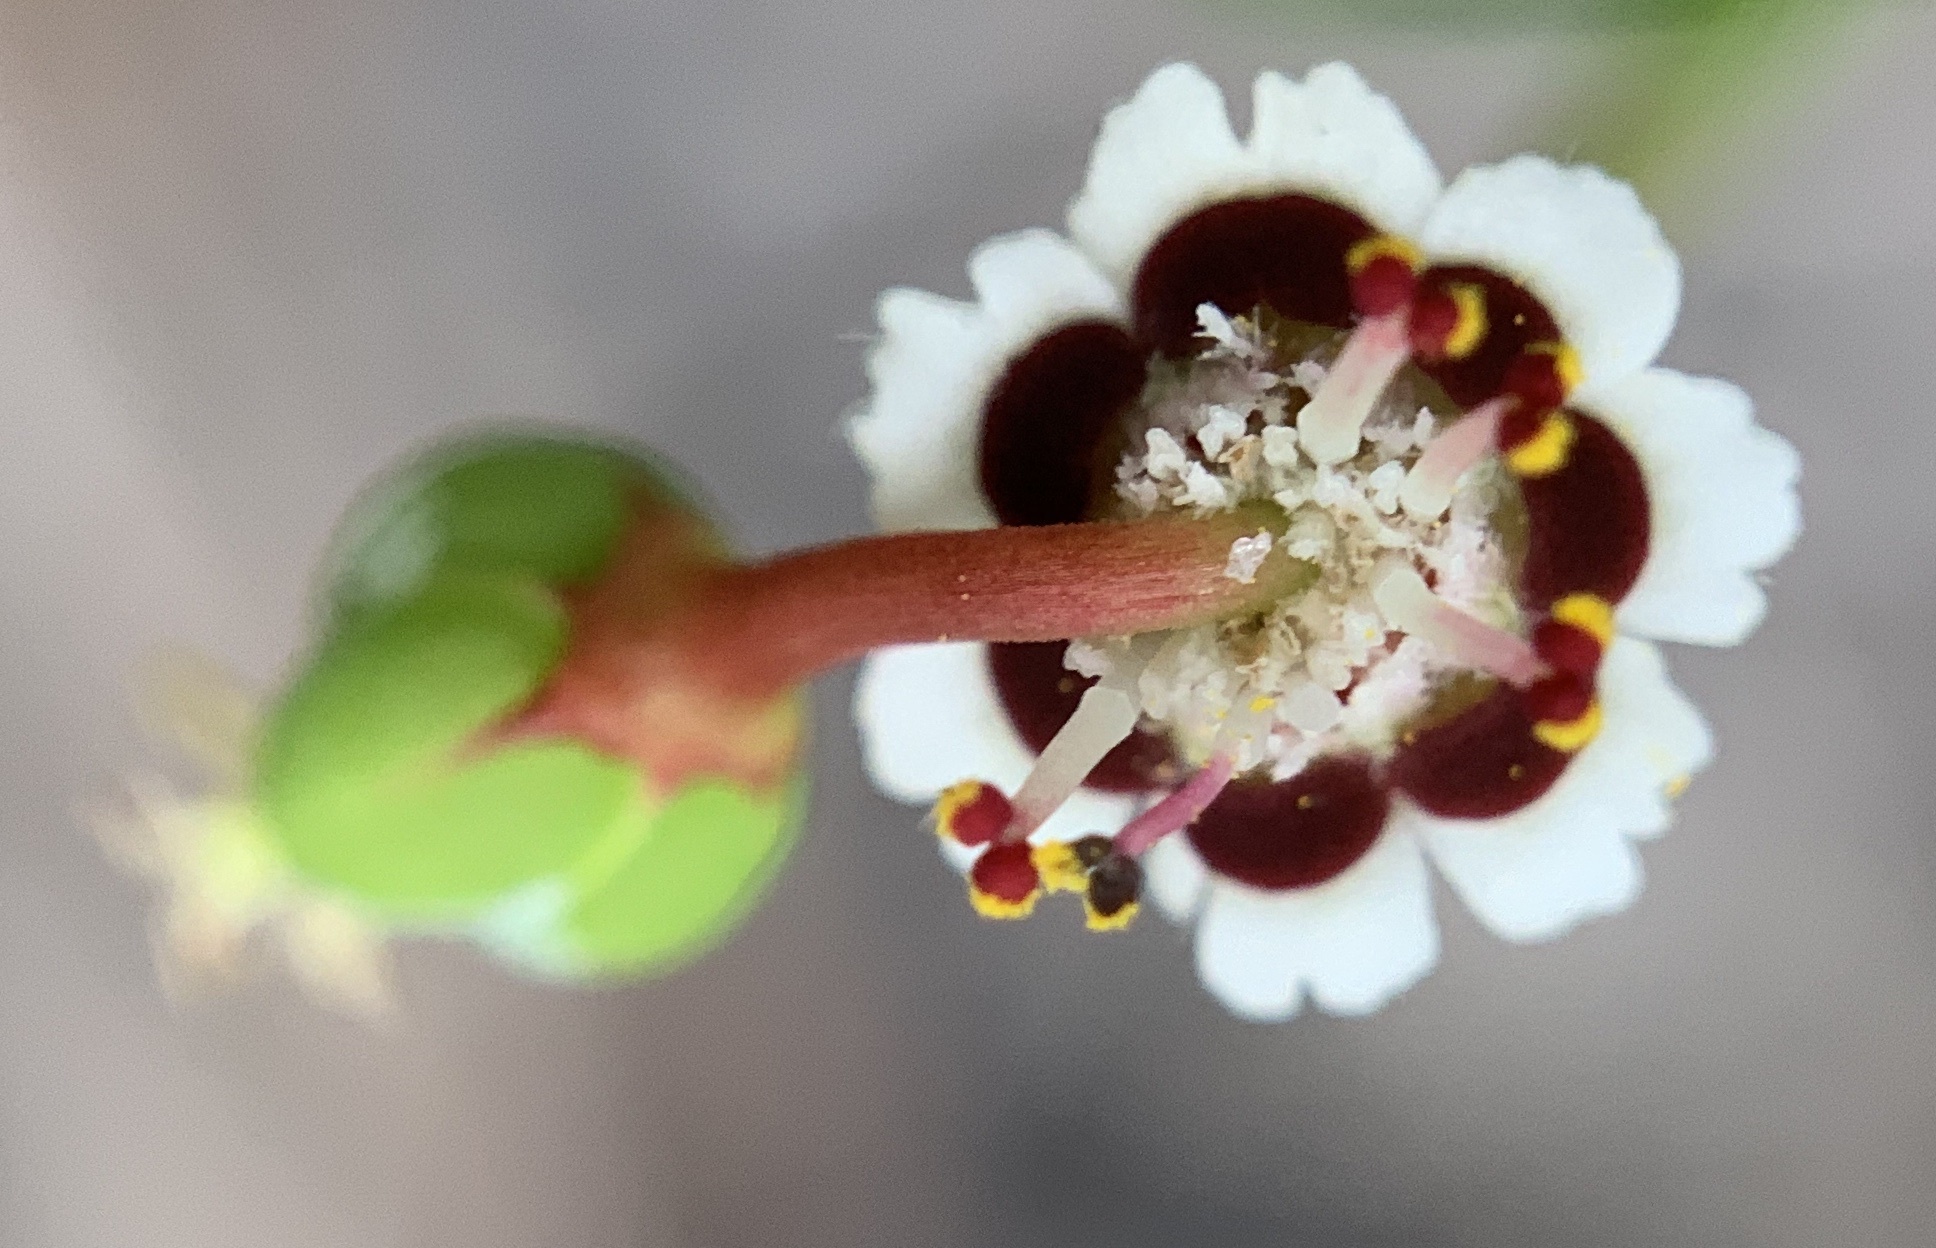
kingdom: Plantae
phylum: Tracheophyta
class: Magnoliopsida
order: Malpighiales
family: Euphorbiaceae
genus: Euphorbia
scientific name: Euphorbia polyphylla
